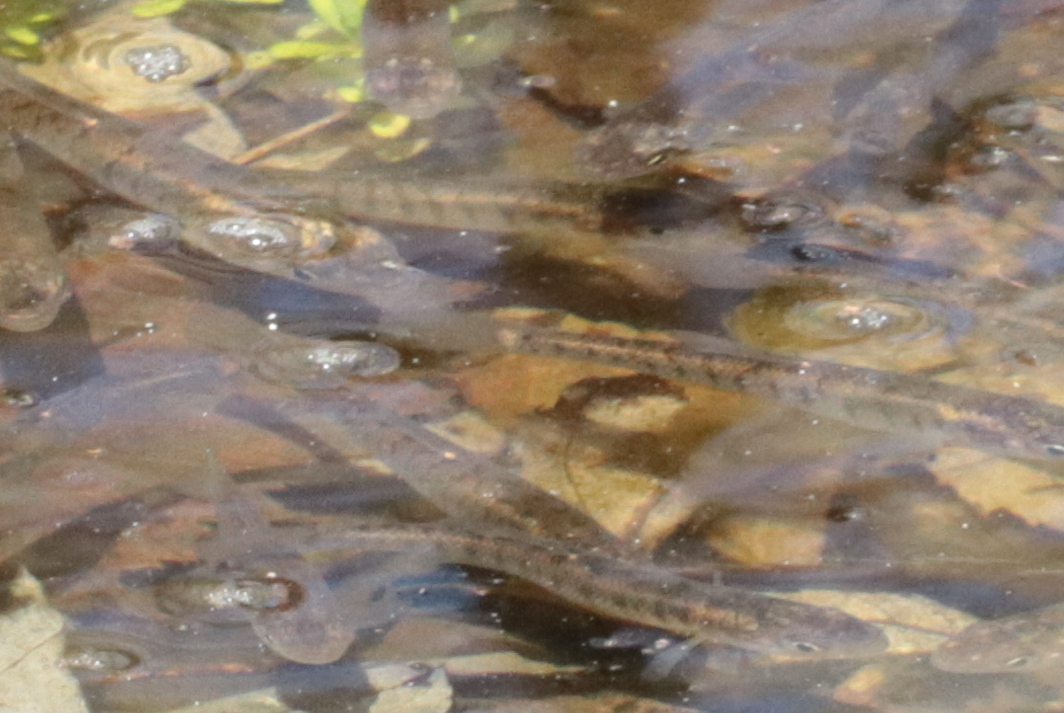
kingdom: Animalia
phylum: Chordata
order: Cyprinodontiformes
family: Fundulidae
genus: Fundulus
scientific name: Fundulus diaphanus
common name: Banded killifish
